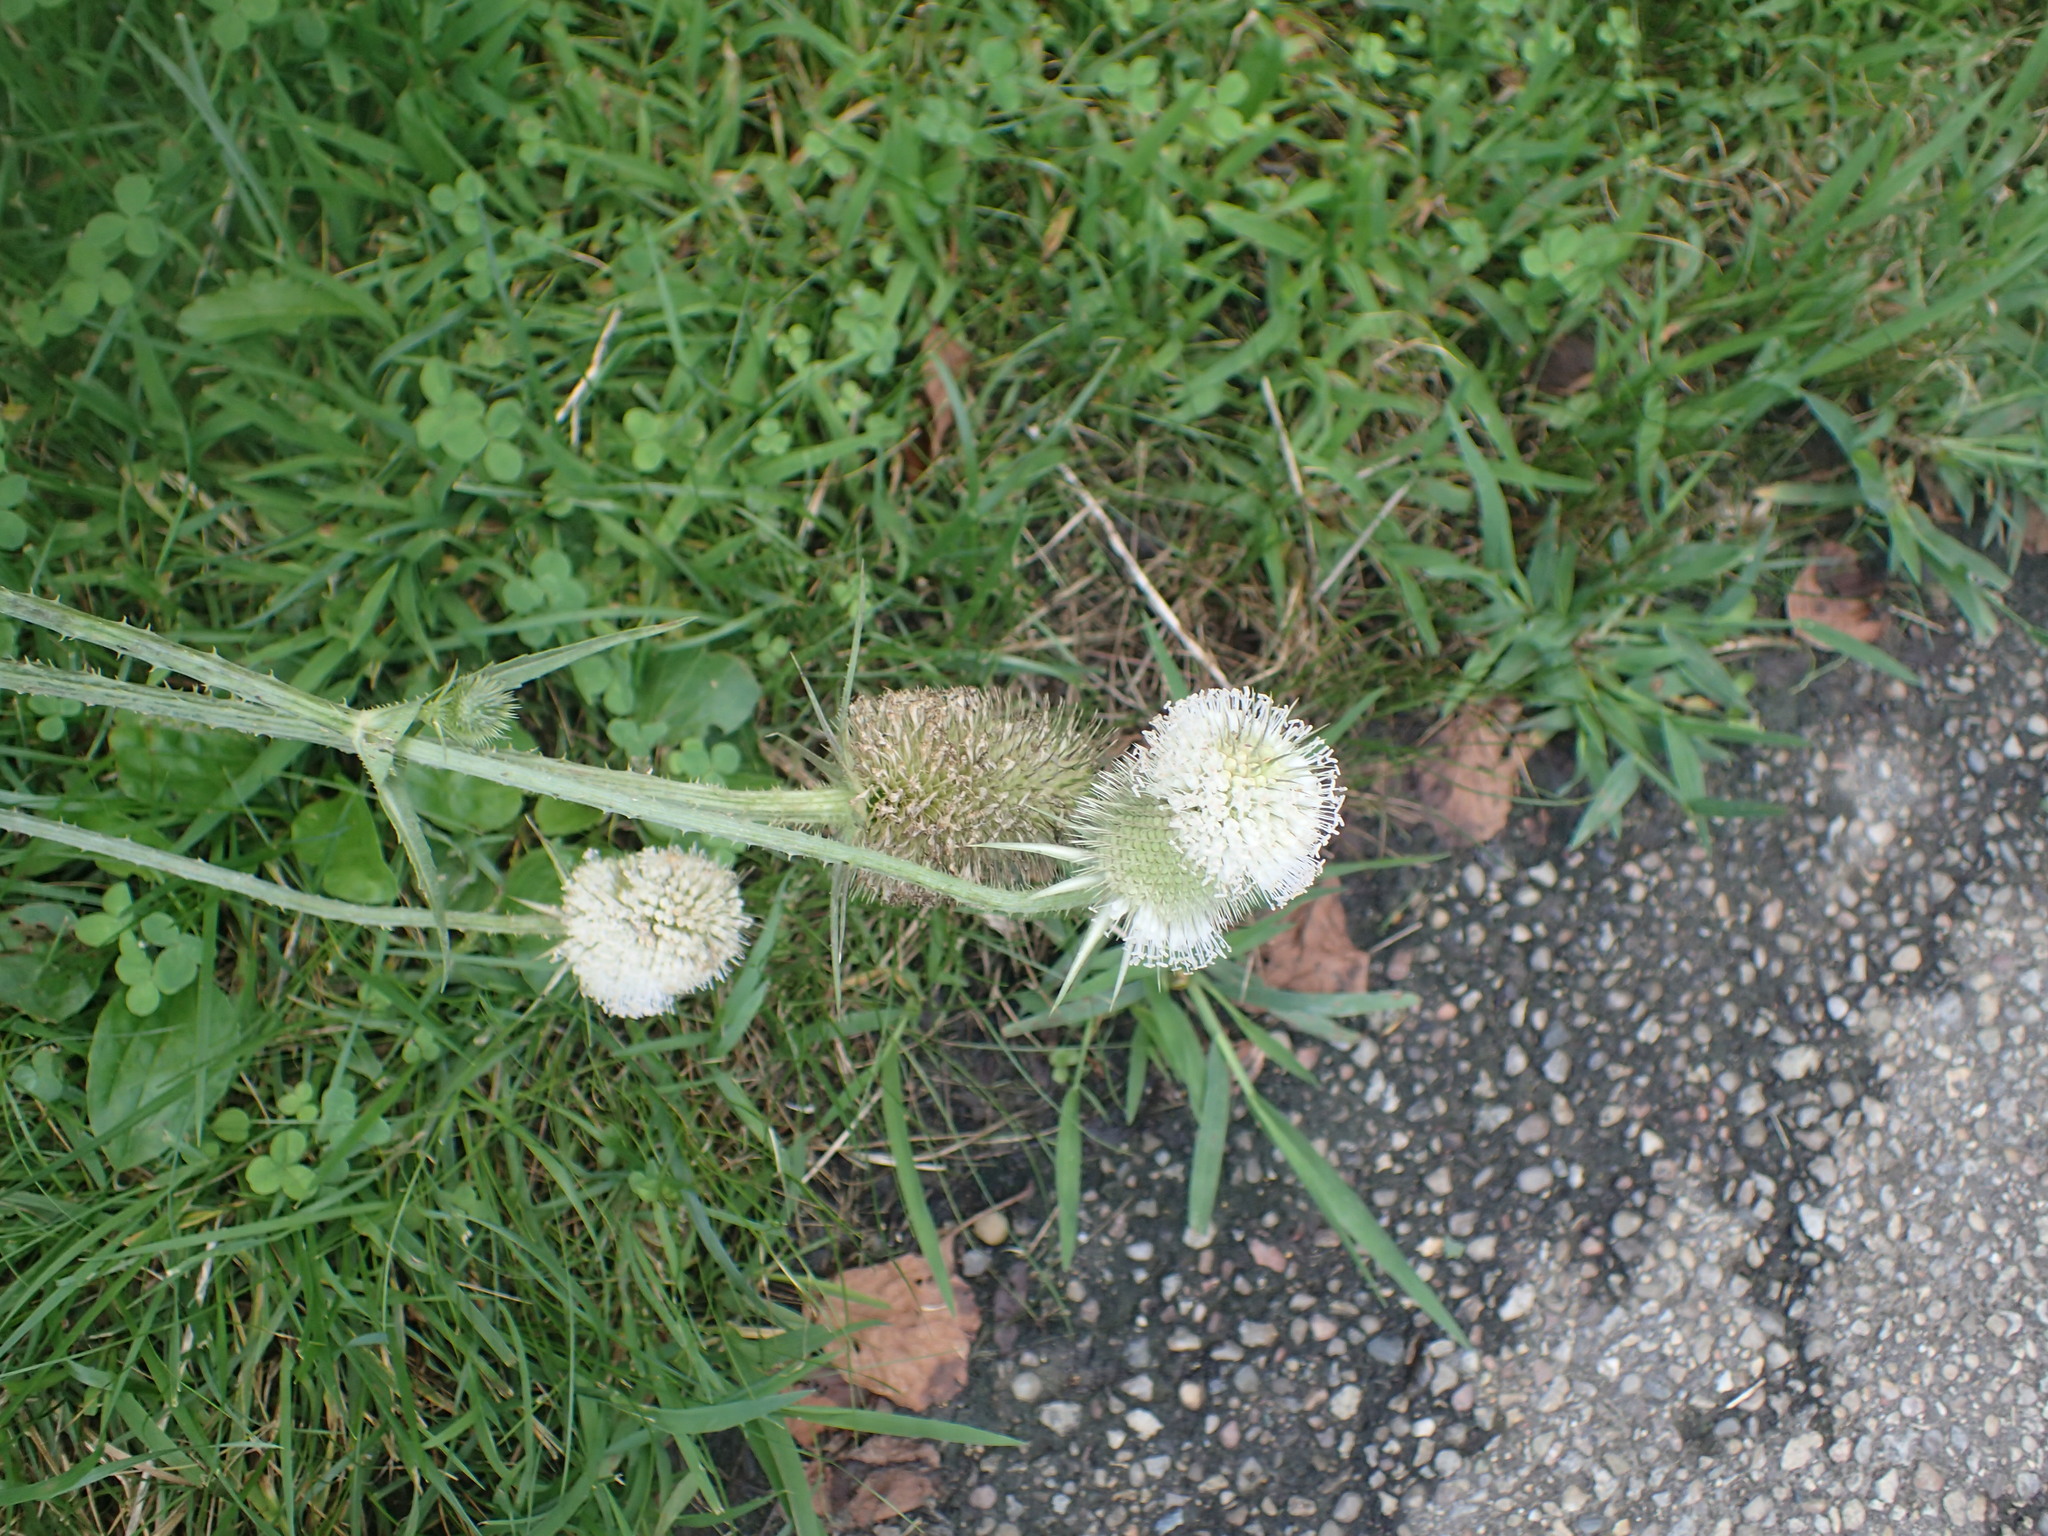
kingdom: Plantae
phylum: Tracheophyta
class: Magnoliopsida
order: Dipsacales
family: Caprifoliaceae
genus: Dipsacus
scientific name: Dipsacus laciniatus
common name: Cut-leaved teasel
